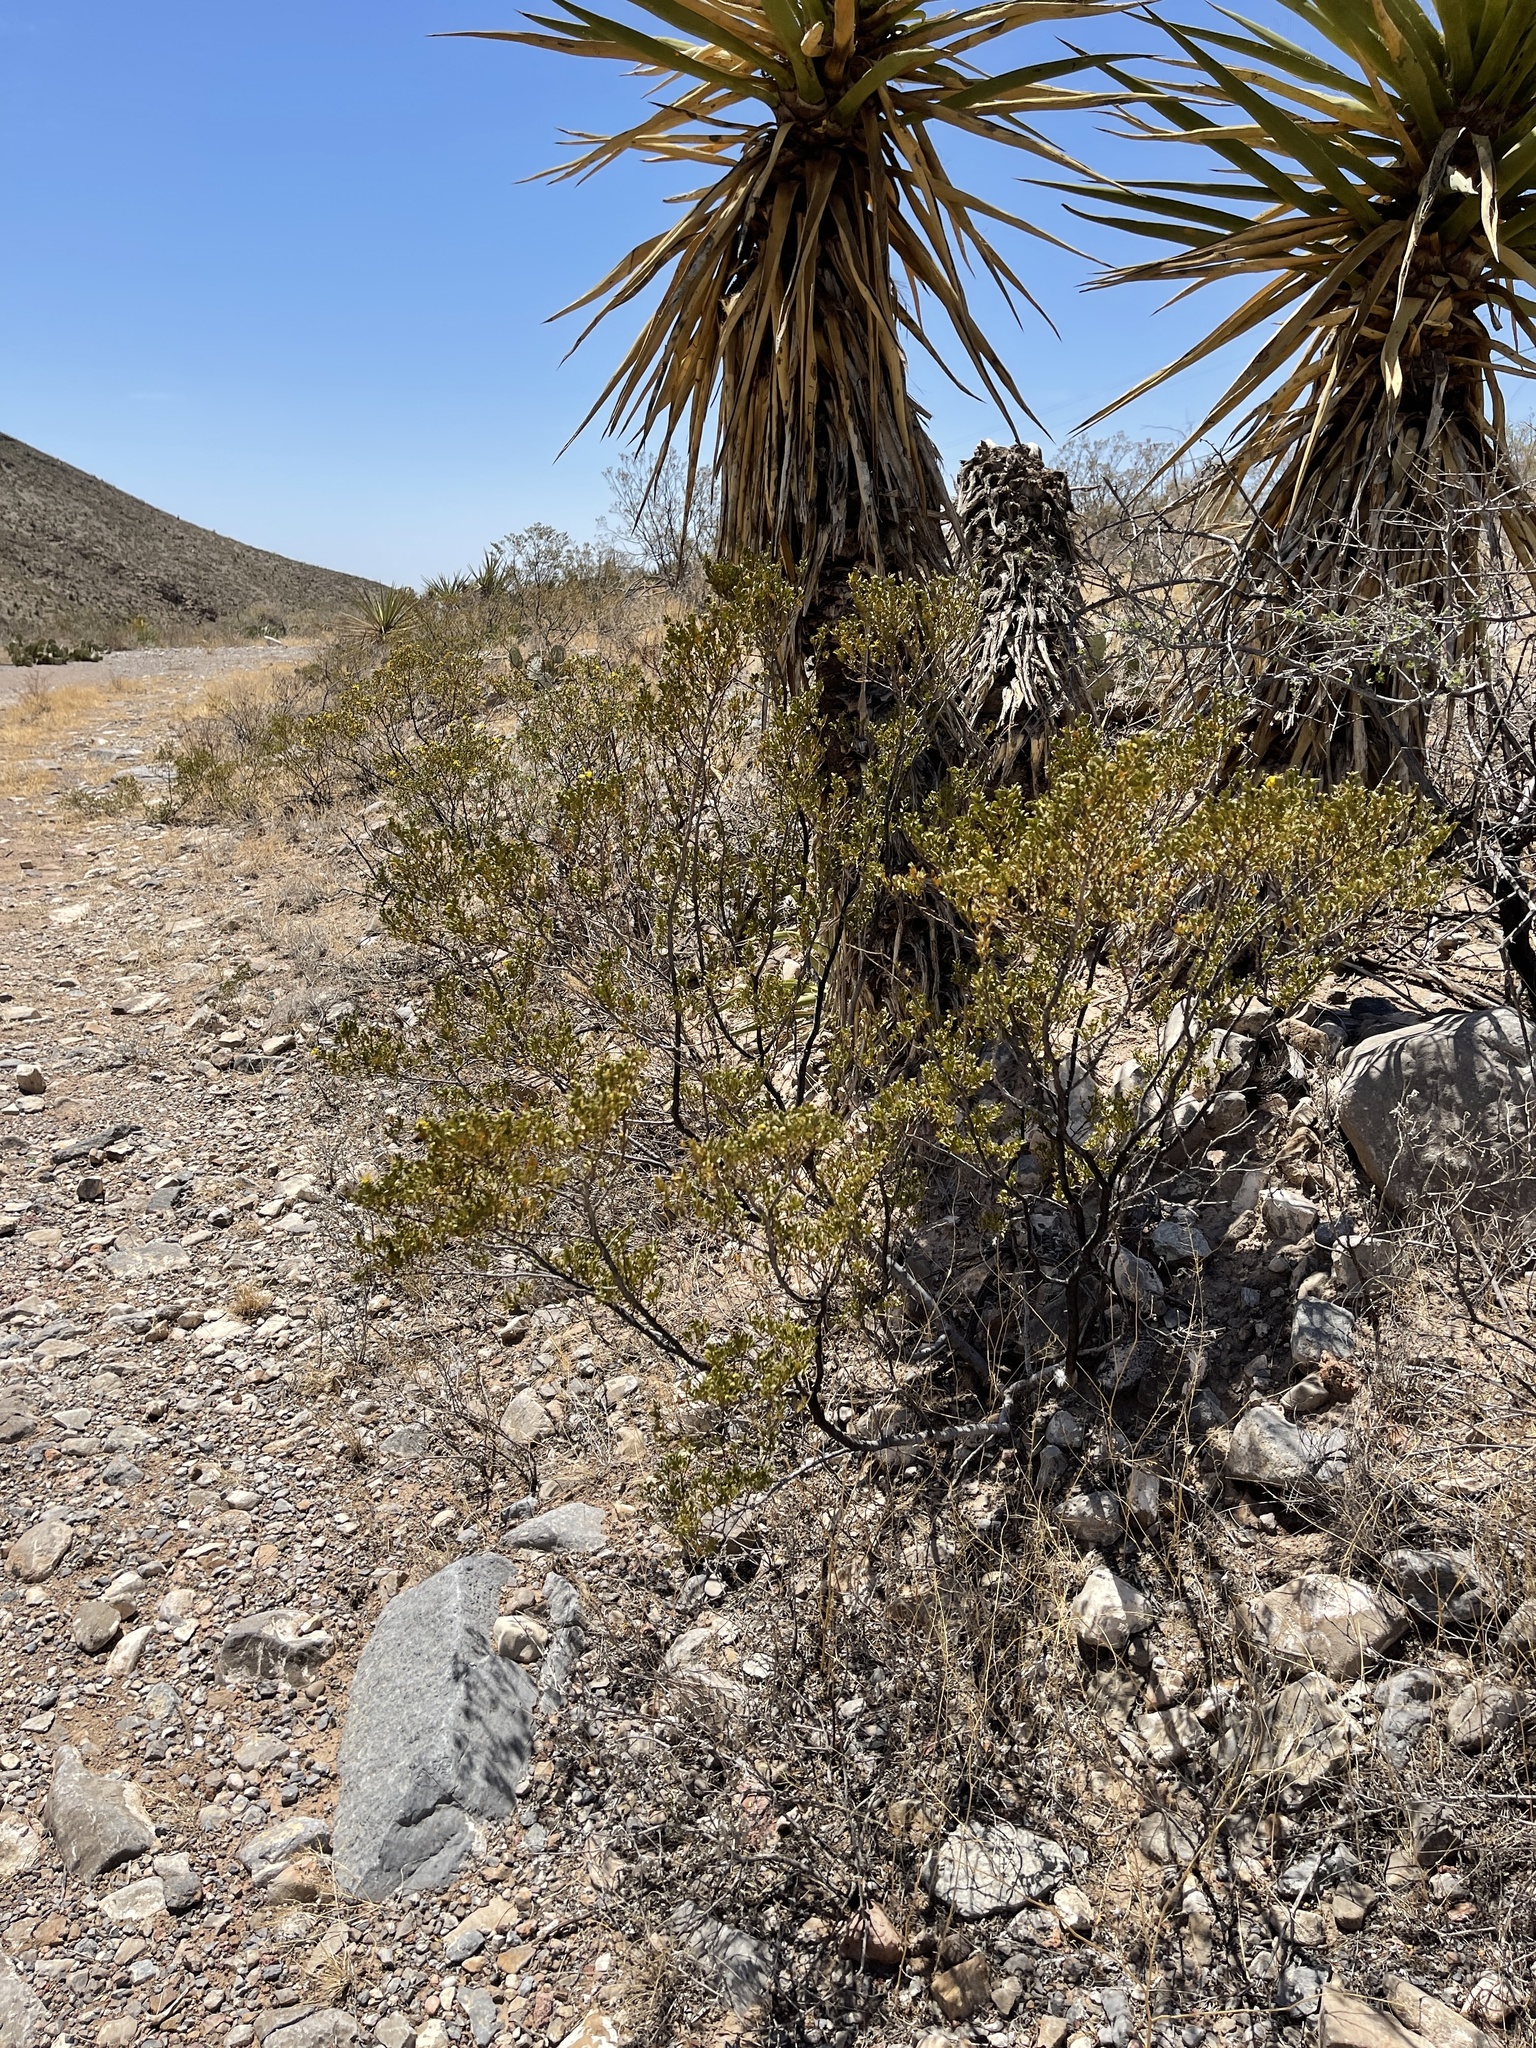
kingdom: Plantae
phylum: Tracheophyta
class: Magnoliopsida
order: Zygophyllales
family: Zygophyllaceae
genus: Larrea
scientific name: Larrea tridentata
